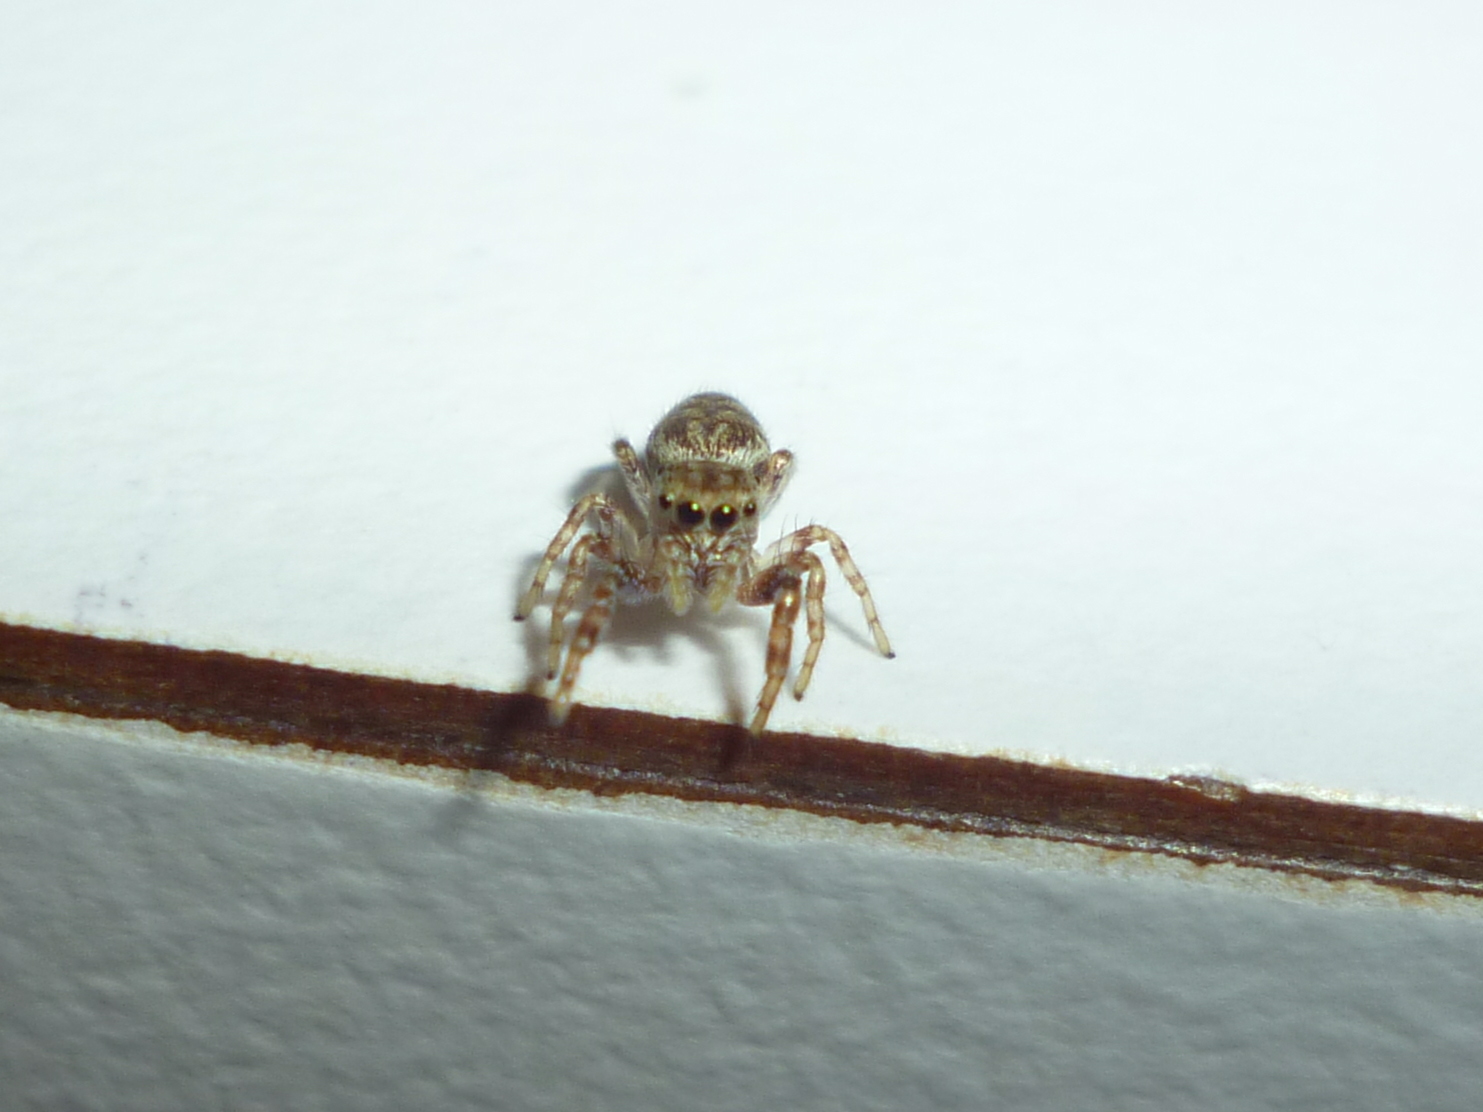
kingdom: Animalia
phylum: Arthropoda
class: Arachnida
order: Araneae
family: Salticidae
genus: Pelegrina
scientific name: Pelegrina proterva
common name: Common white-cheeked jumping spider
